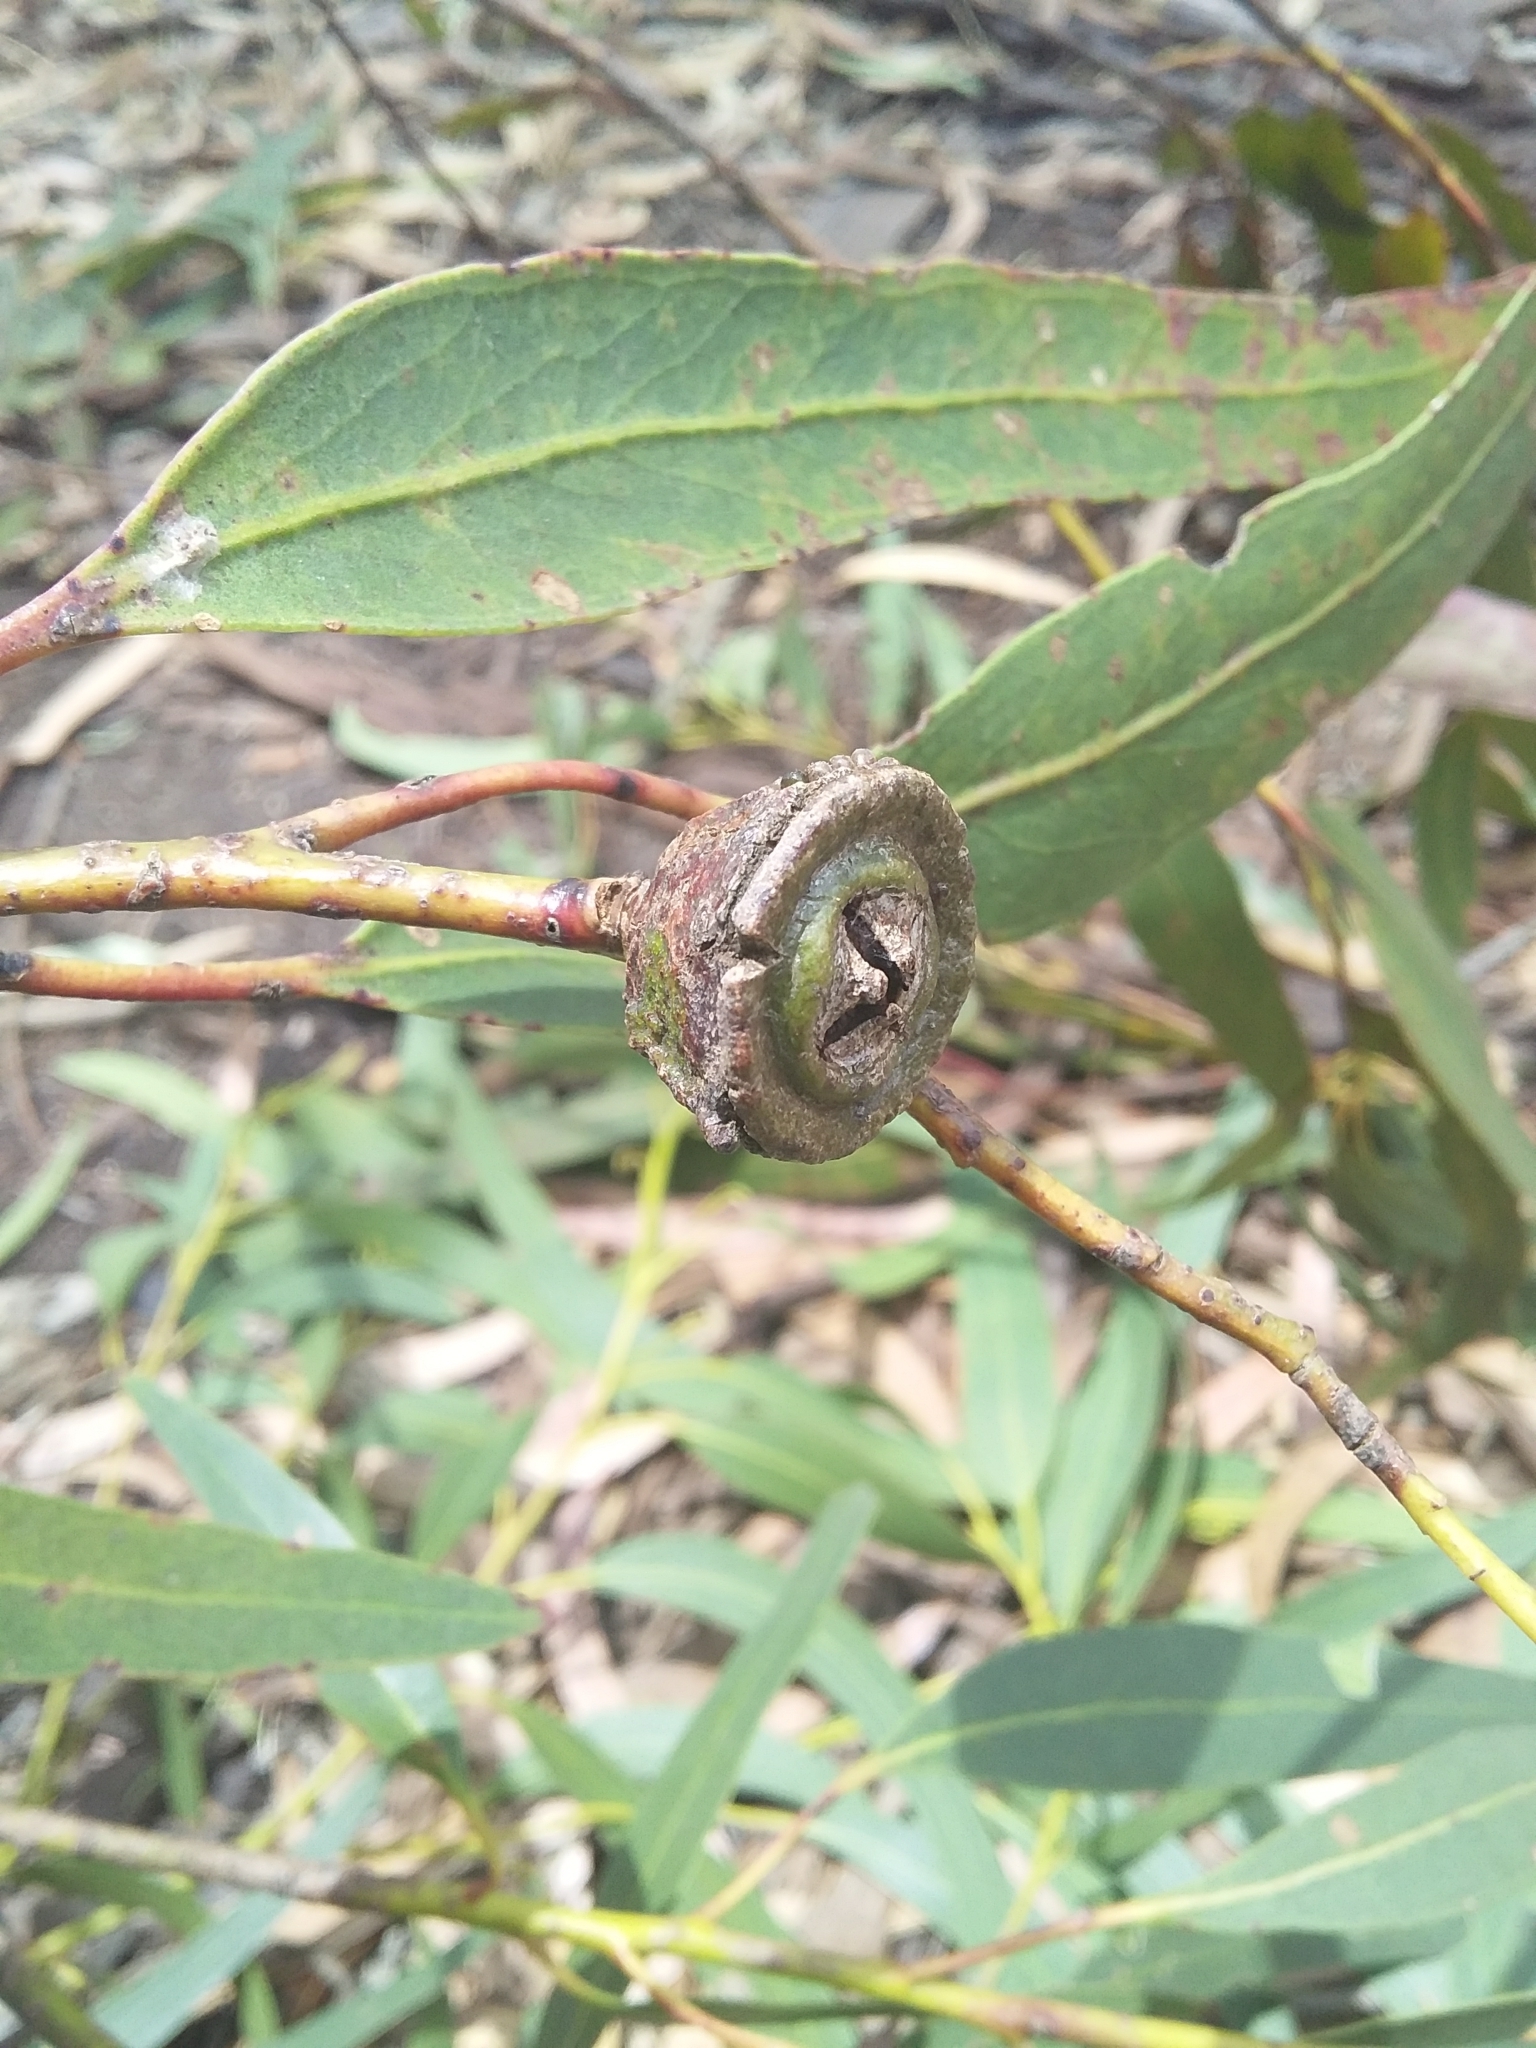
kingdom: Plantae
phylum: Tracheophyta
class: Magnoliopsida
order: Myrtales
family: Myrtaceae
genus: Eucalyptus
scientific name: Eucalyptus globulus
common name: Southern blue-gum
